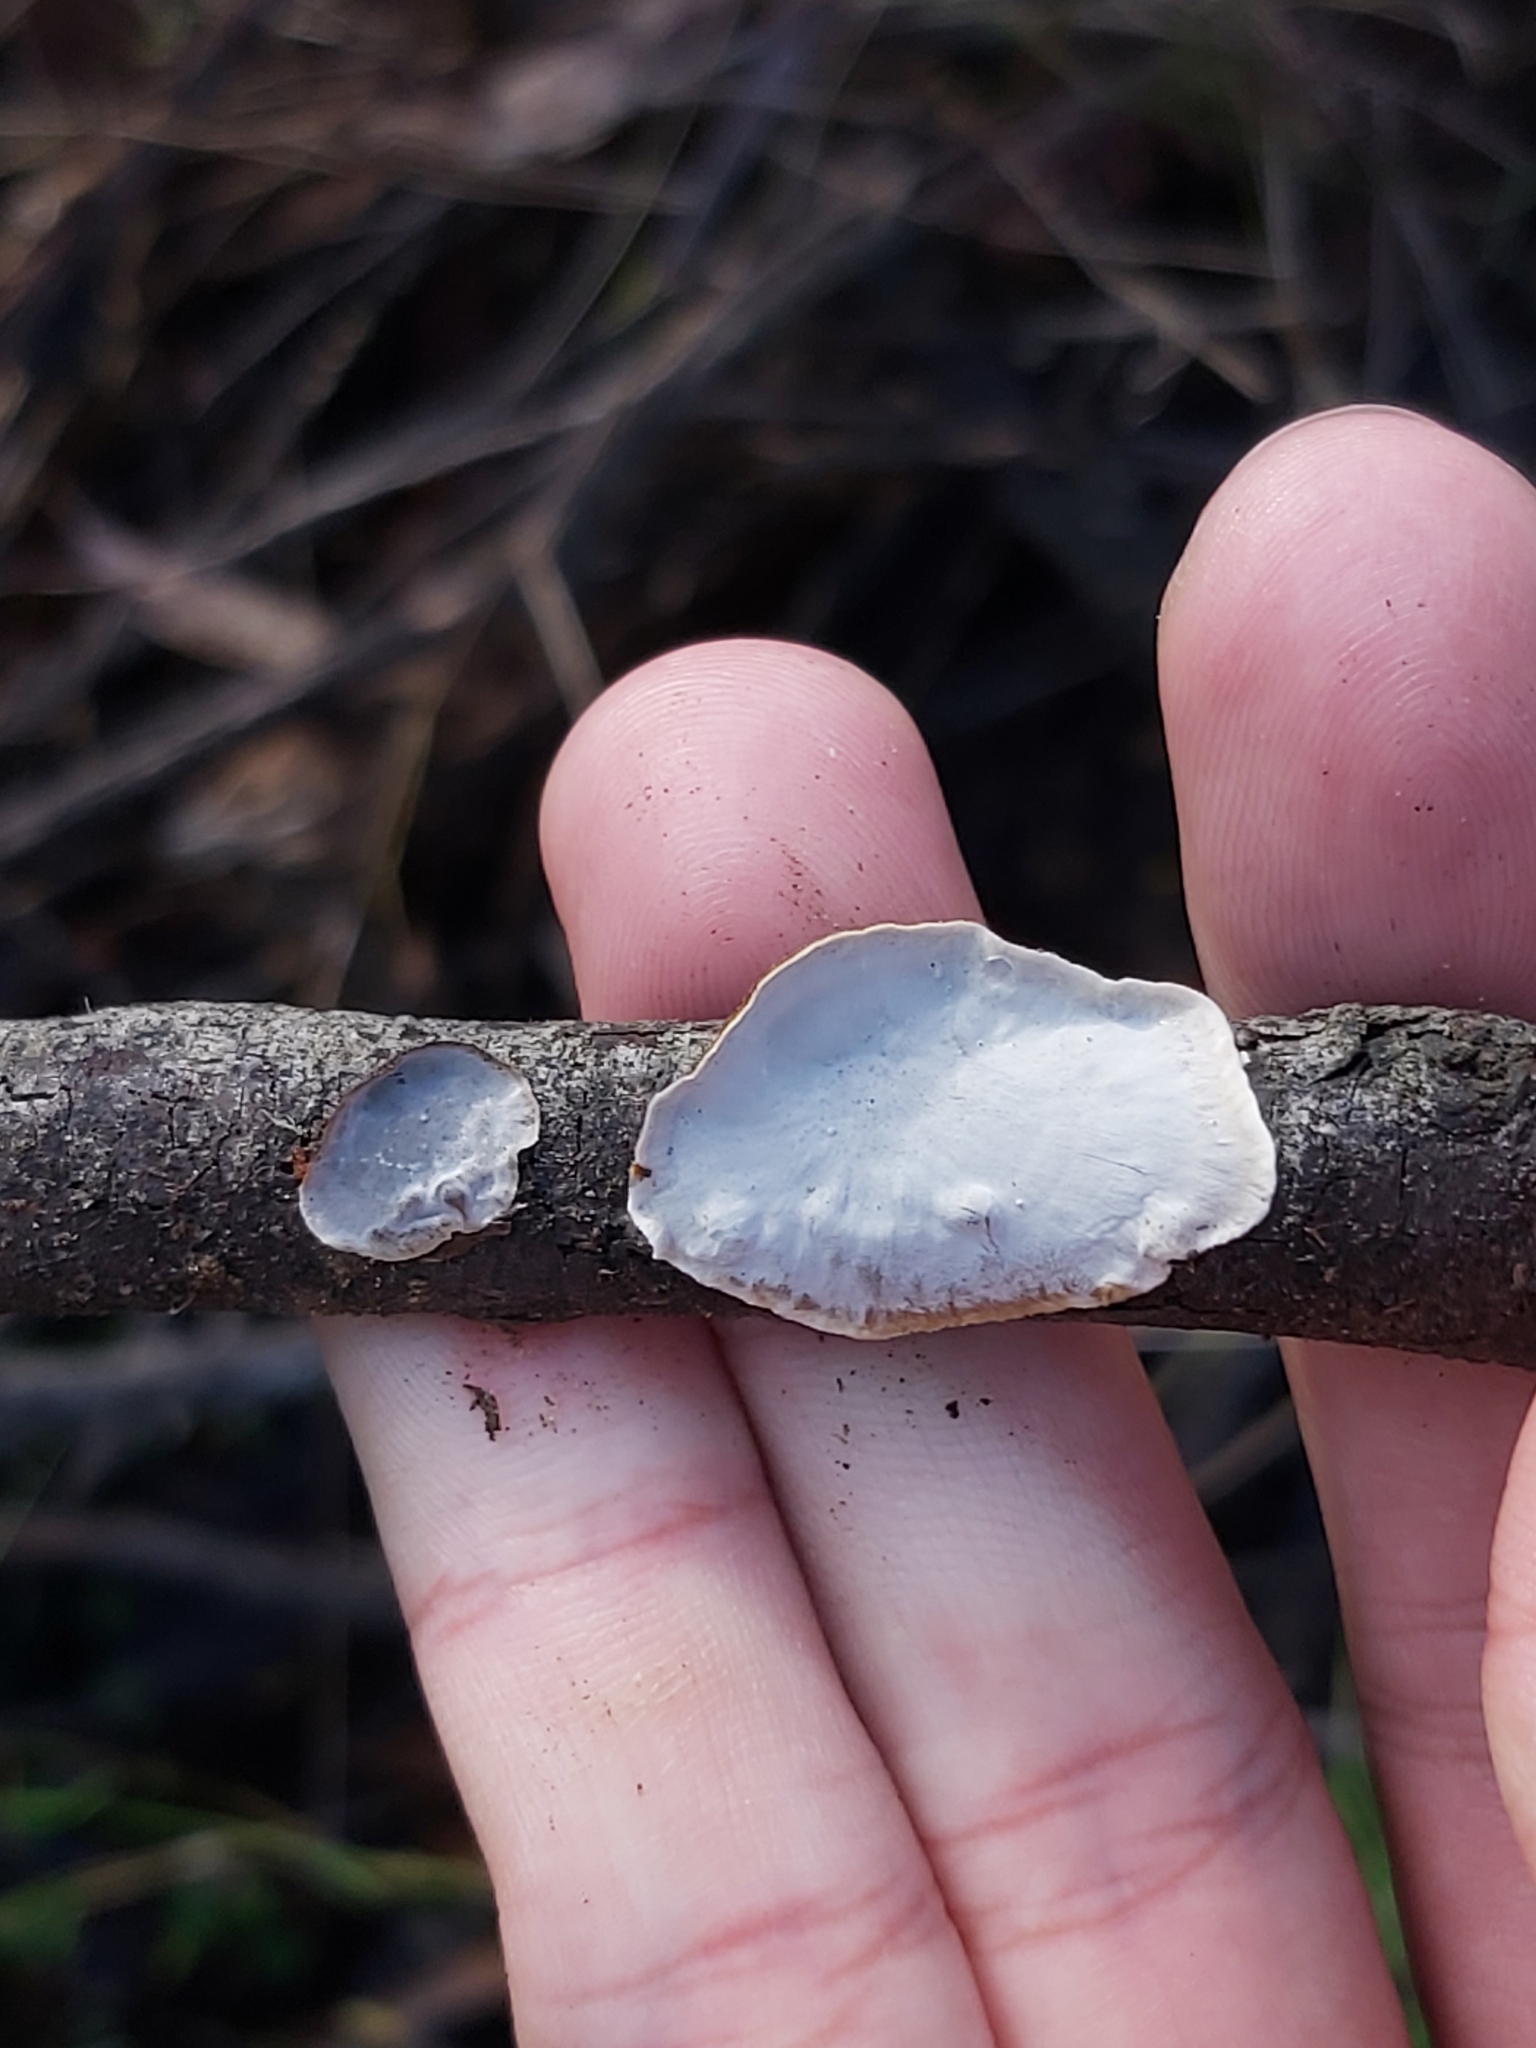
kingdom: Fungi
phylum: Basidiomycota
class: Agaricomycetes
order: Polyporales
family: Polyporaceae
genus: Trametes
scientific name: Trametes versicolor
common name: Turkeytail
